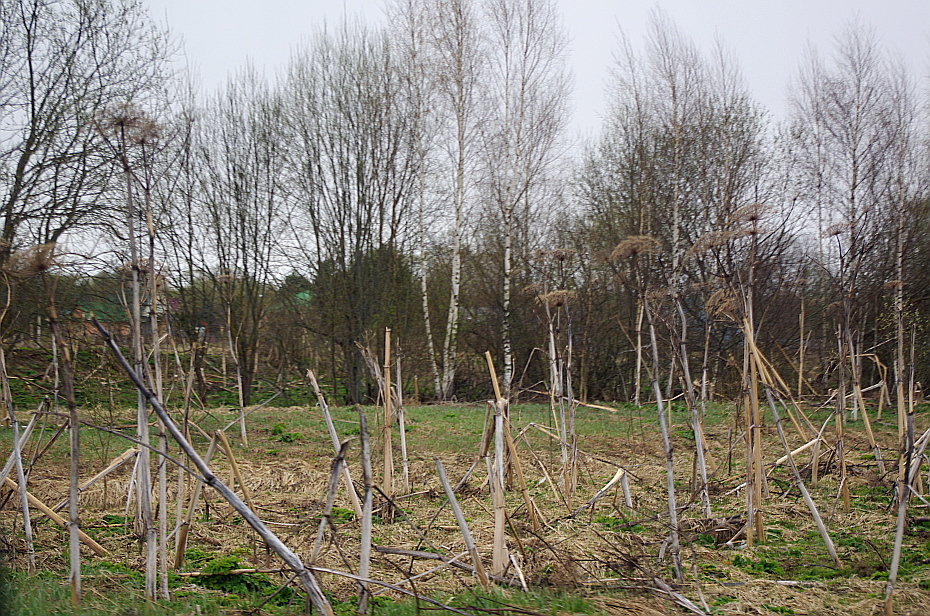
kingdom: Plantae
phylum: Tracheophyta
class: Magnoliopsida
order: Apiales
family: Apiaceae
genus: Heracleum
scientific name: Heracleum sosnowskyi
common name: Sosnowsky's hogweed
